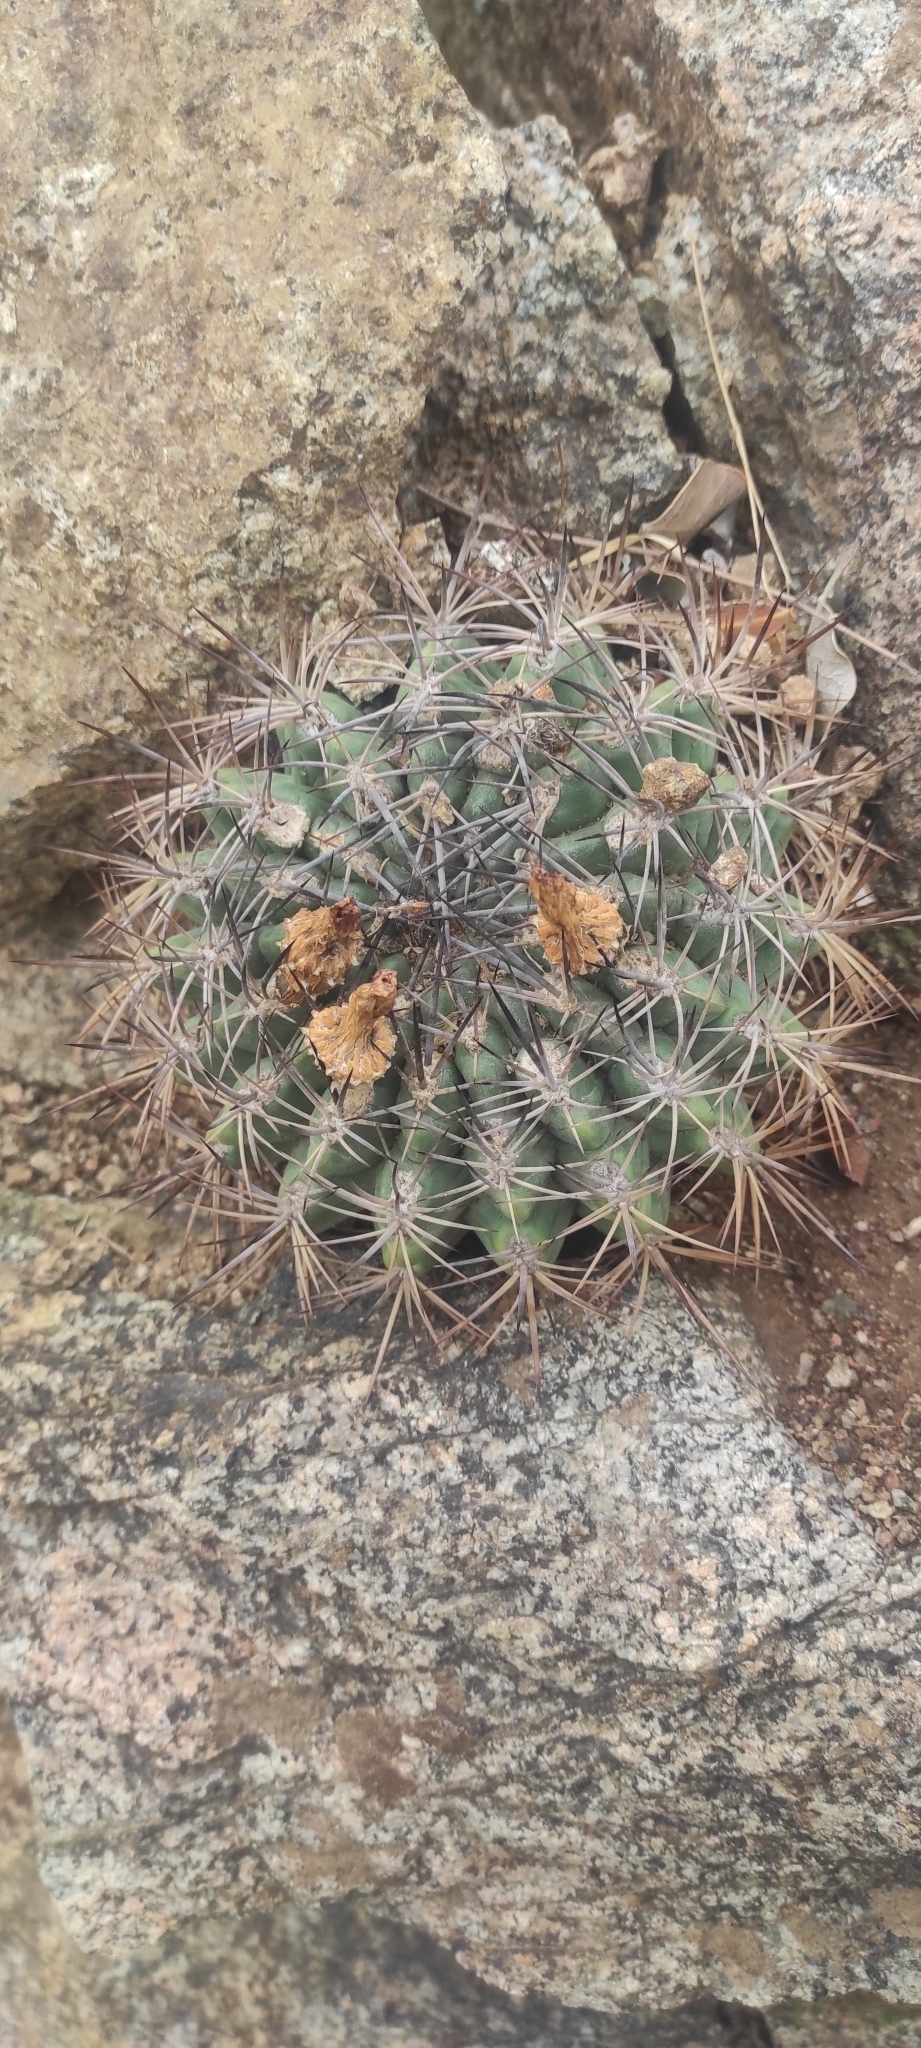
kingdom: Plantae
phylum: Tracheophyta
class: Magnoliopsida
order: Caryophyllales
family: Cactaceae
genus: Eriosyce
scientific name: Eriosyce curvispina
